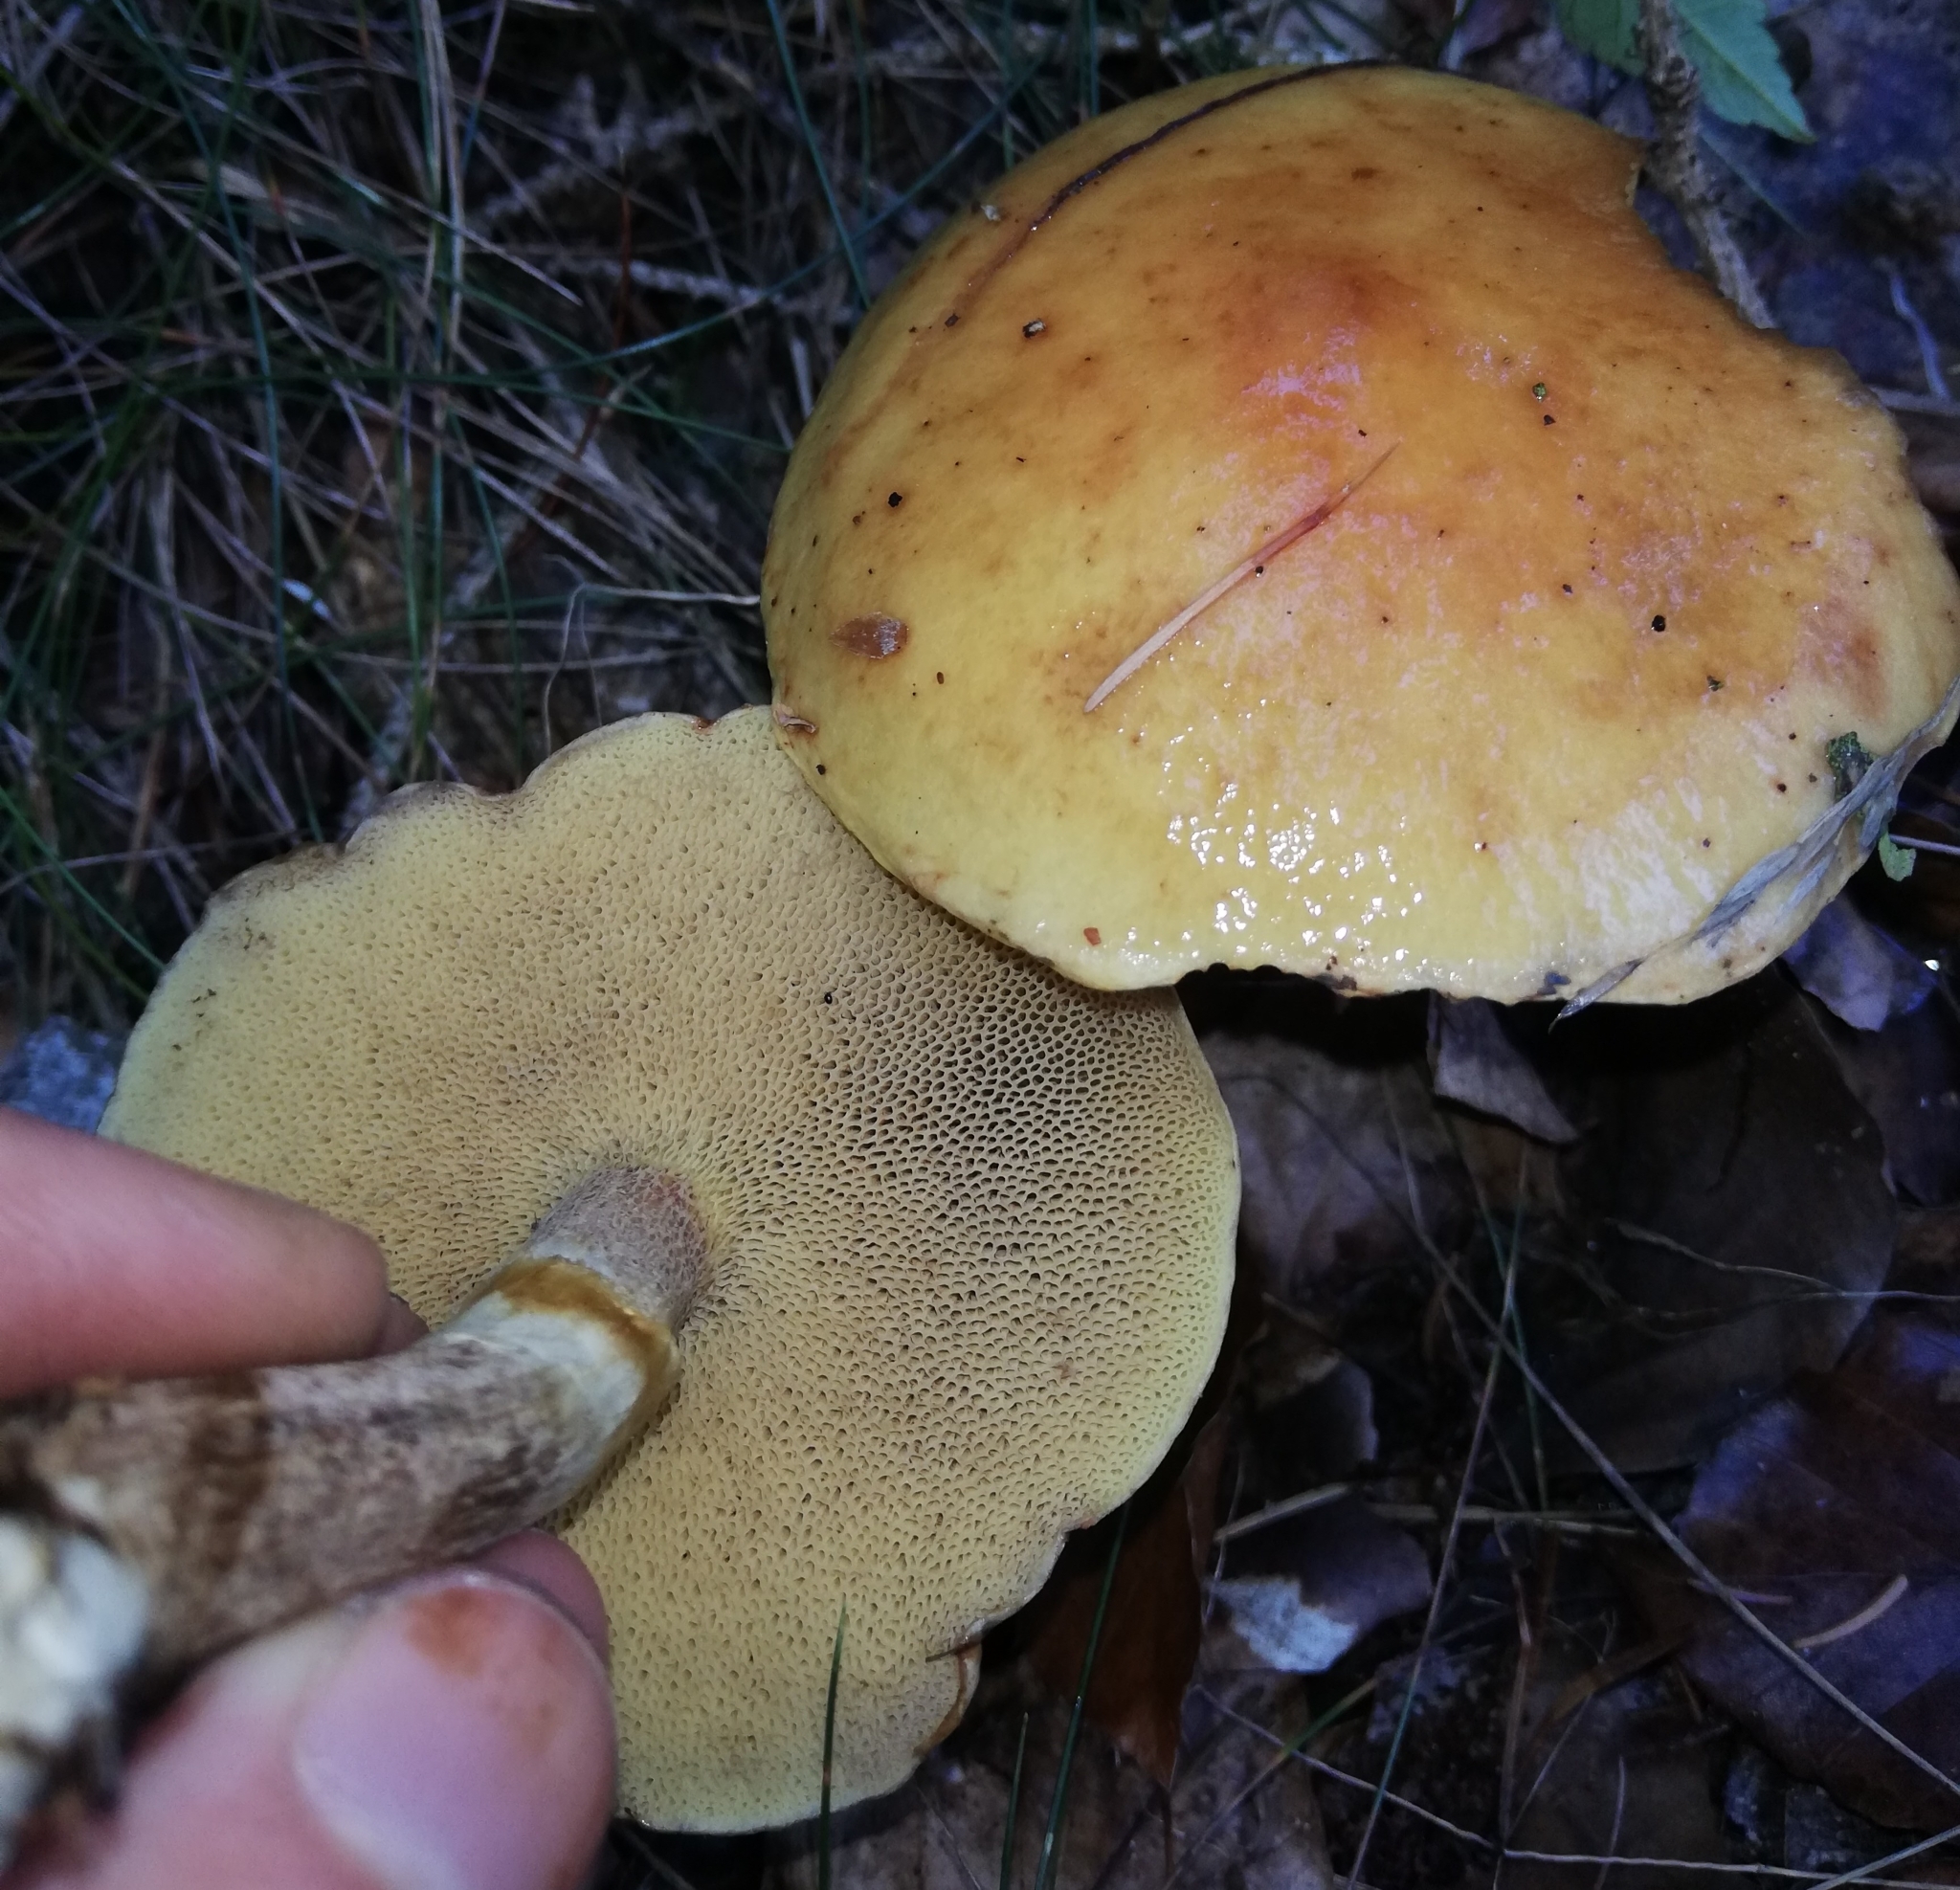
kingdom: Fungi
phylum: Basidiomycota
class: Agaricomycetes
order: Boletales
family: Suillaceae
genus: Suillus
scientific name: Suillus grevillei
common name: Larch bolete
